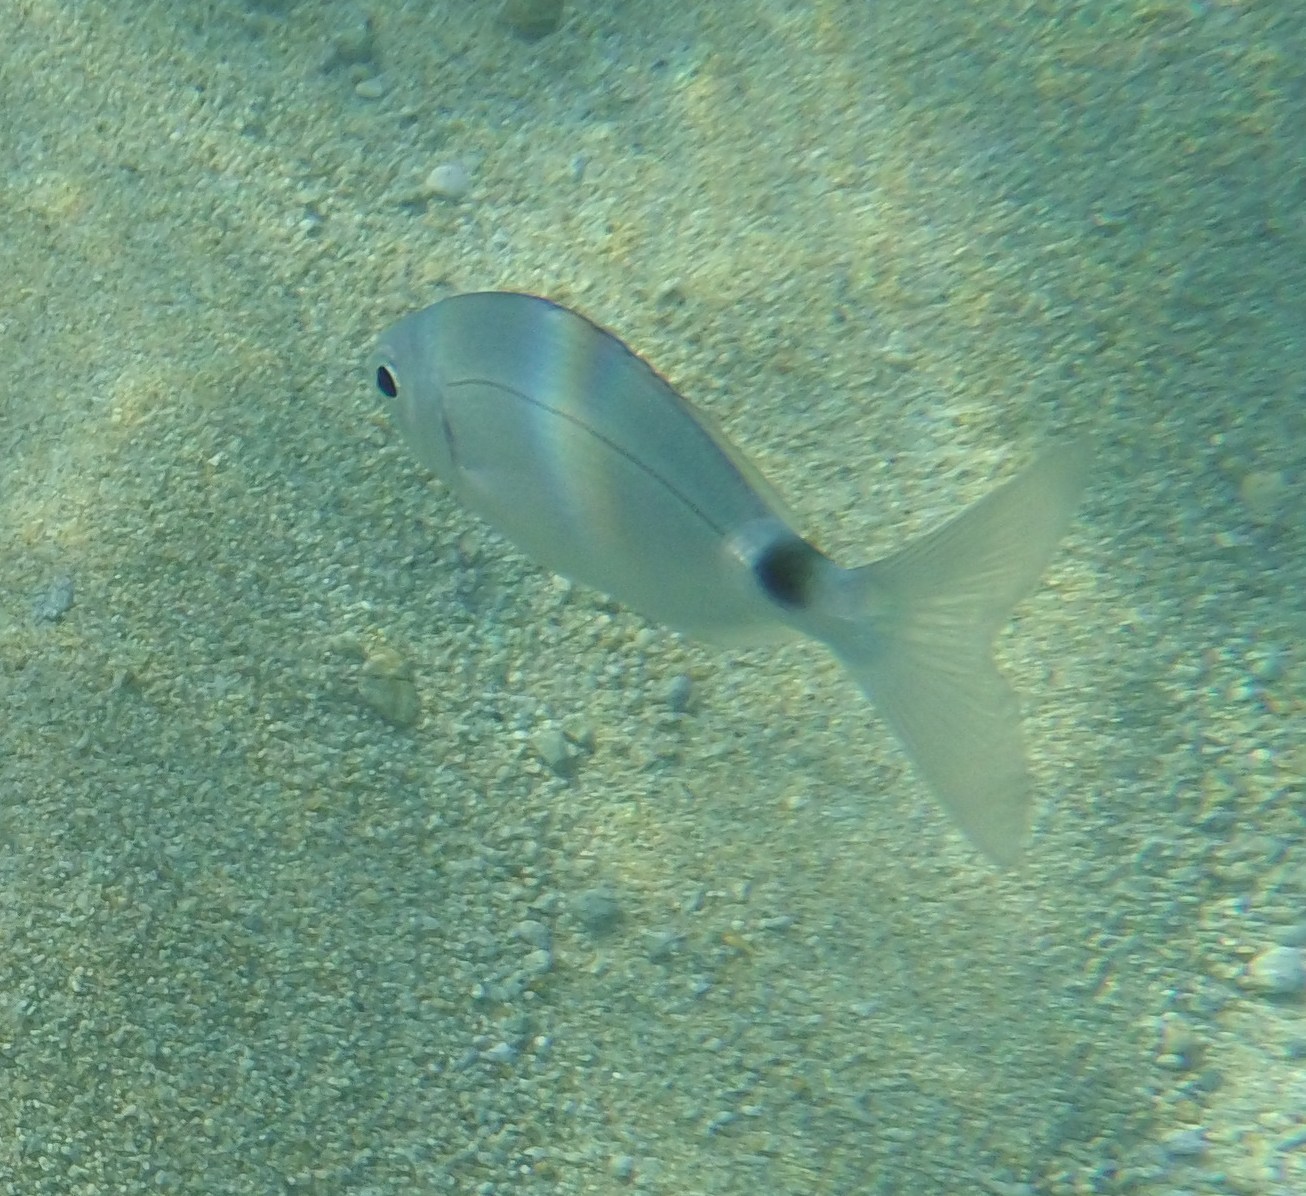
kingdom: Animalia
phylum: Chordata
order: Perciformes
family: Sparidae
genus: Oblada
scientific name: Oblada melanura
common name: Saddled seabream
